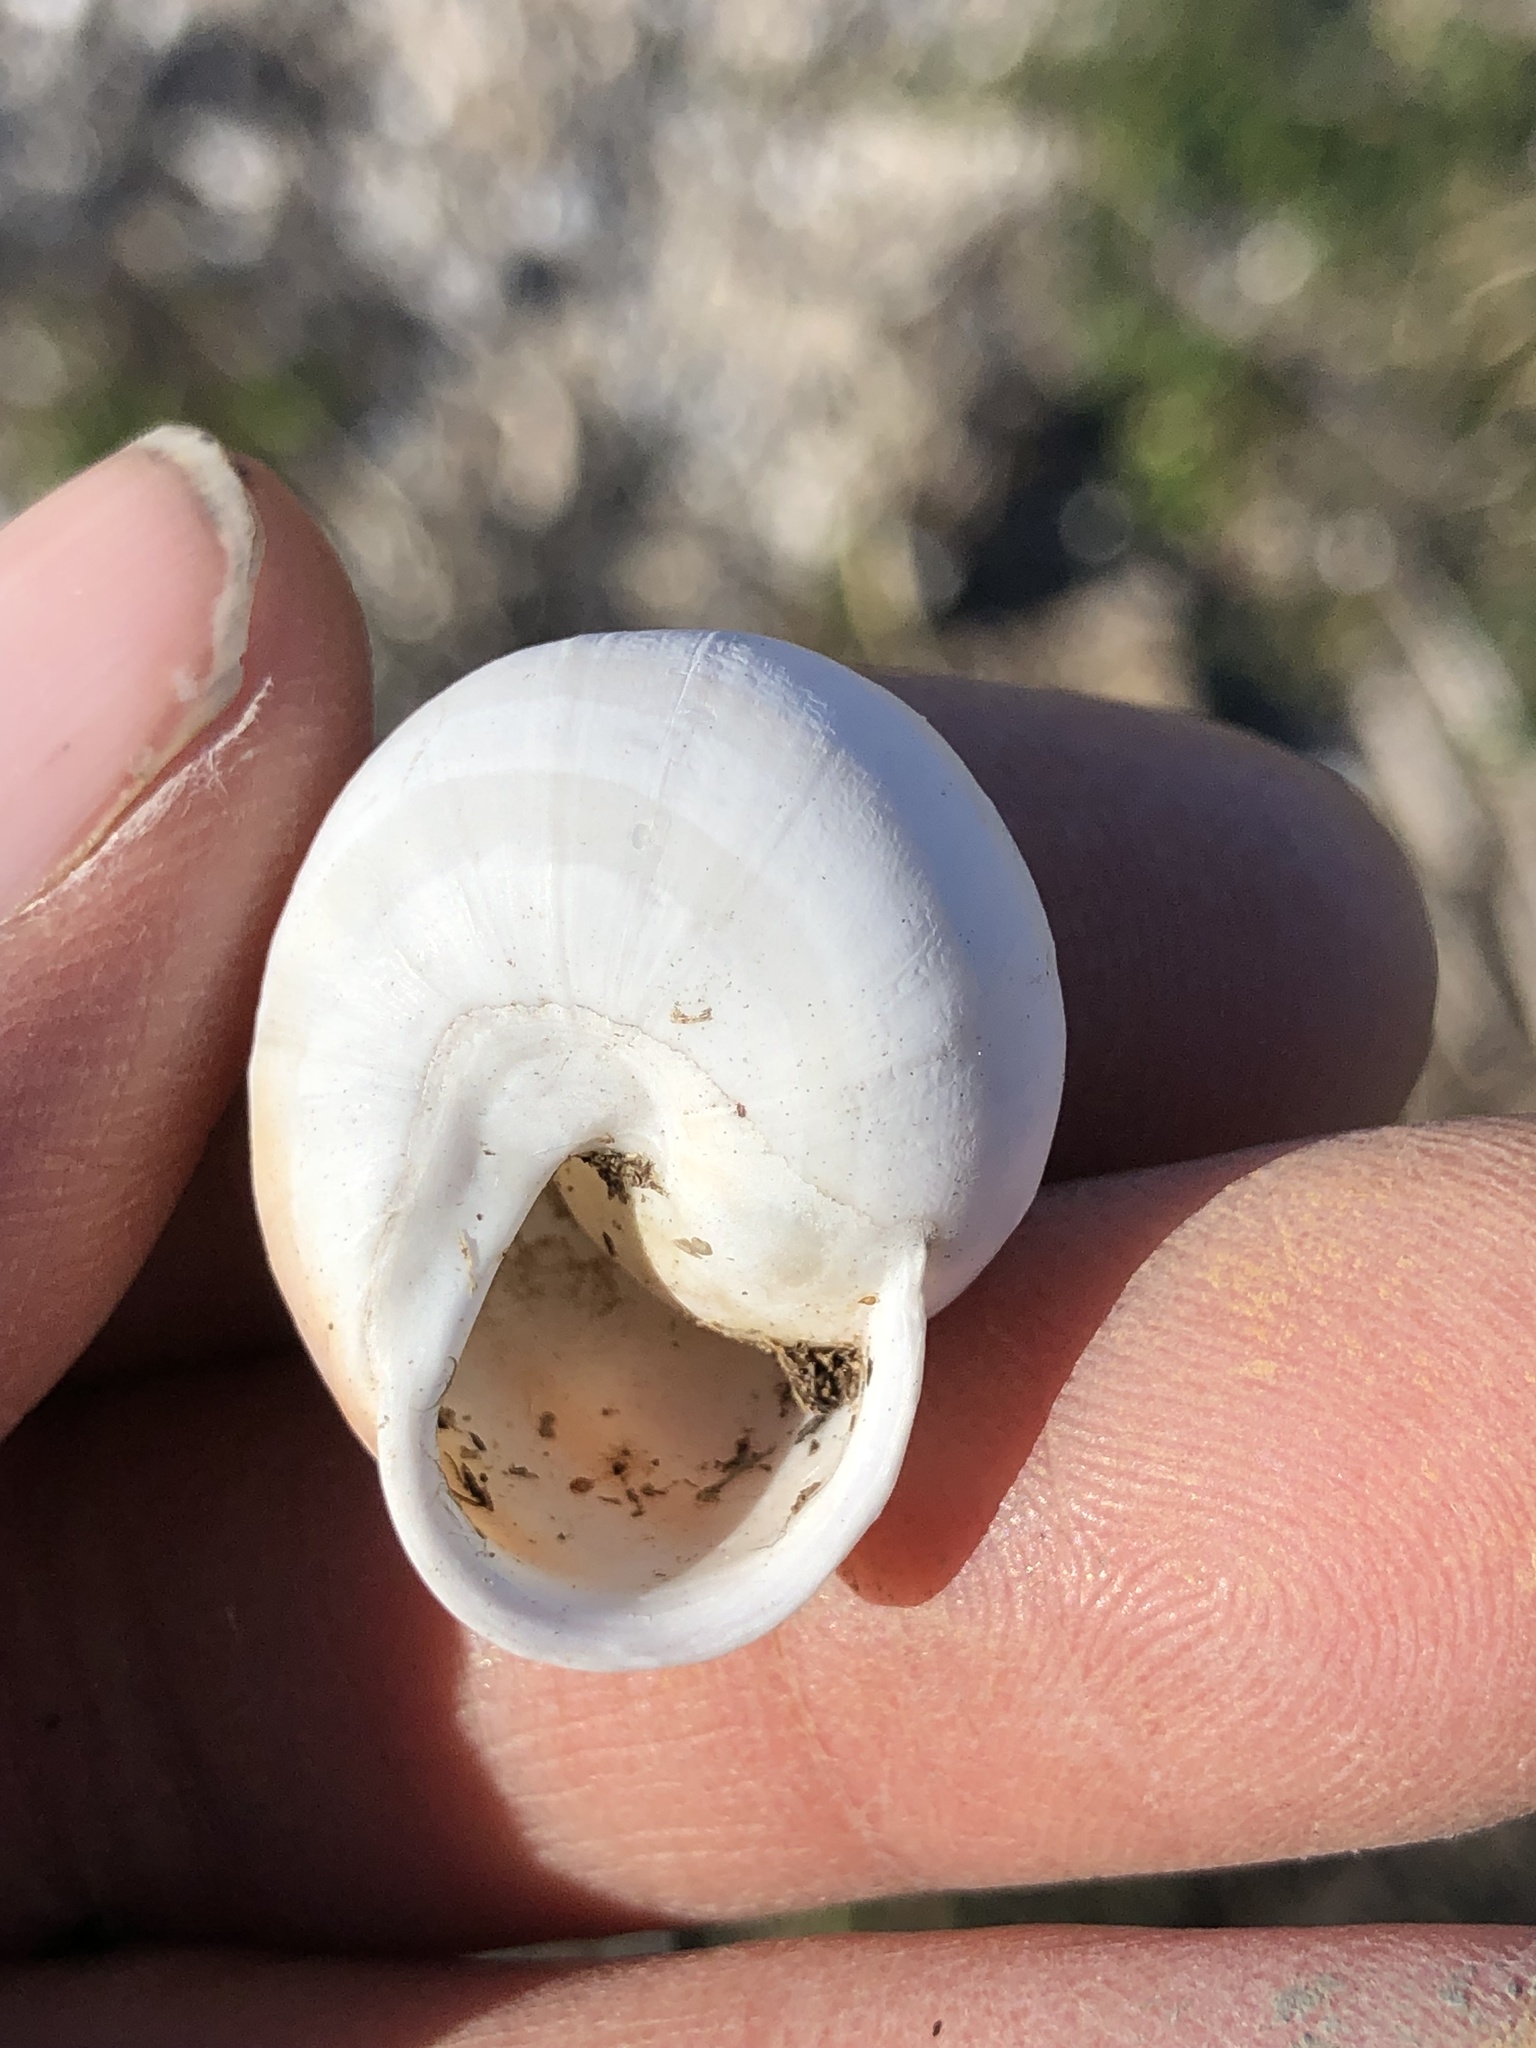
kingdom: Animalia
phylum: Mollusca
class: Gastropoda
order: Stylommatophora
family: Helicidae
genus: Eobania
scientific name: Eobania vermiculata
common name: Chocolateband snail
